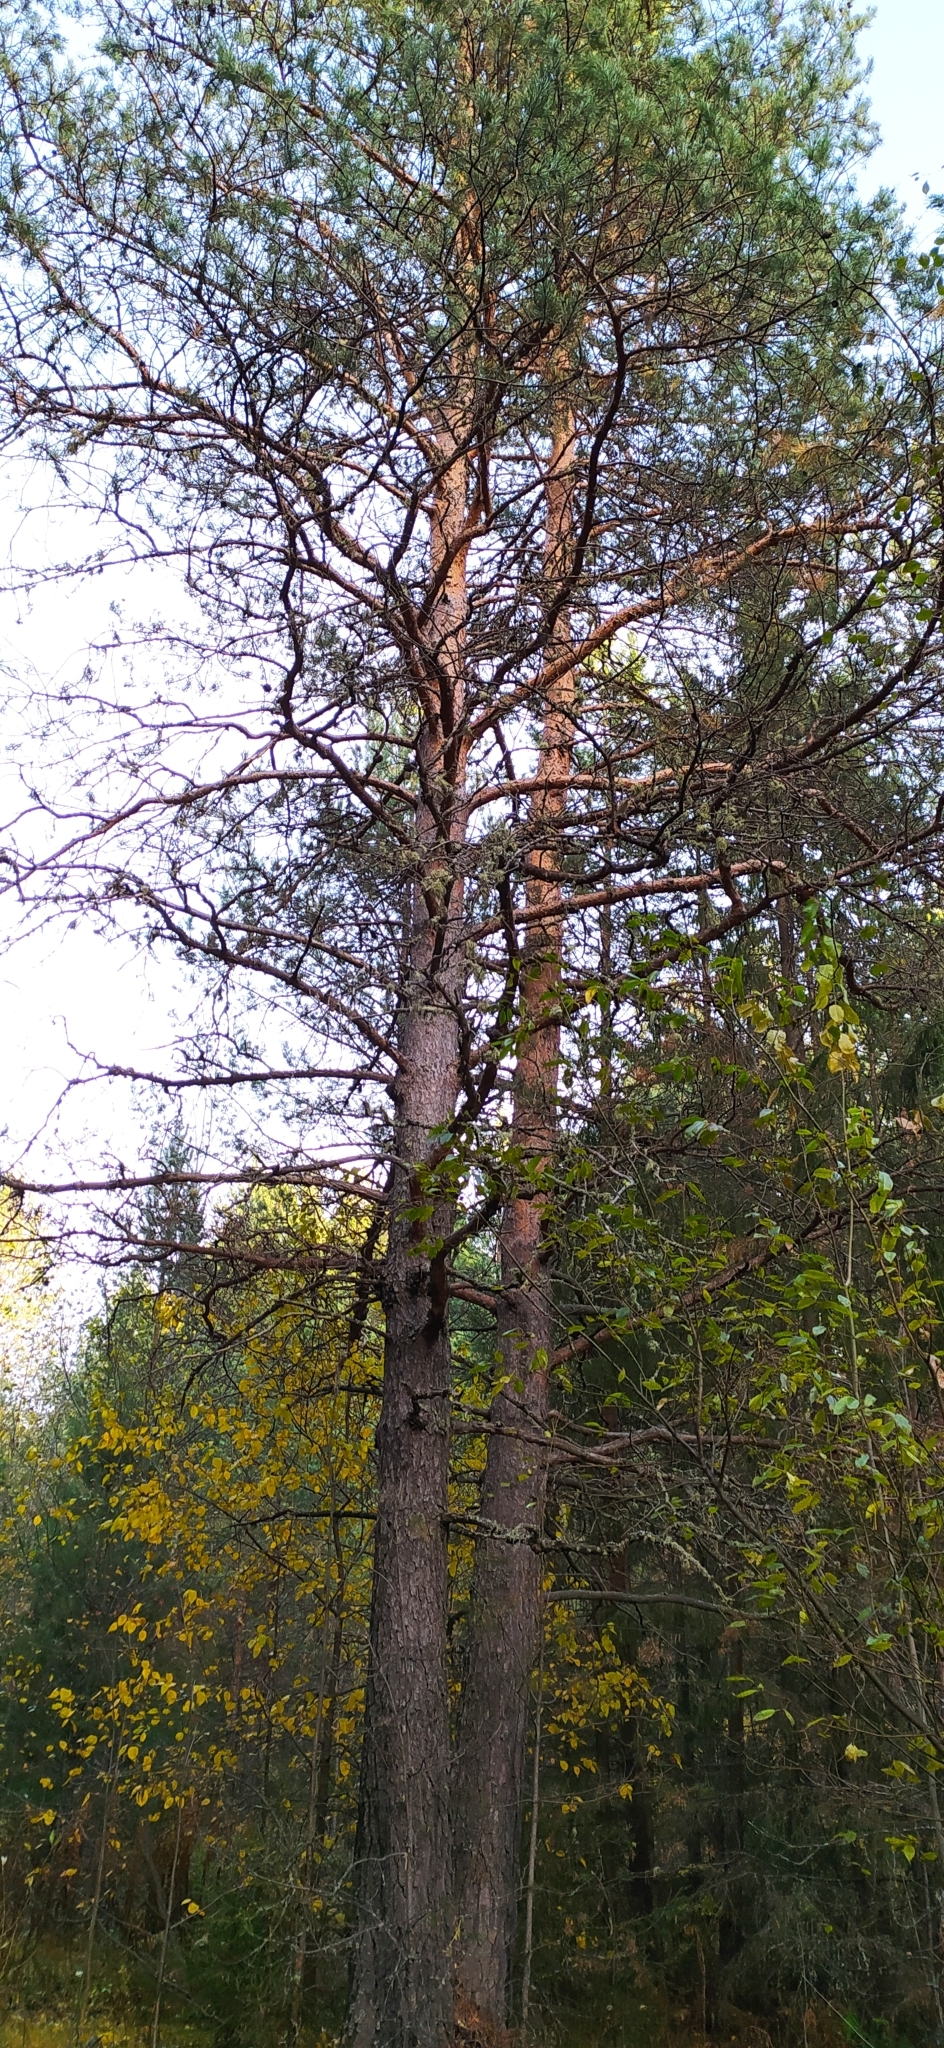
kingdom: Plantae
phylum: Tracheophyta
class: Pinopsida
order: Pinales
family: Pinaceae
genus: Pinus
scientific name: Pinus sylvestris
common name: Scots pine
